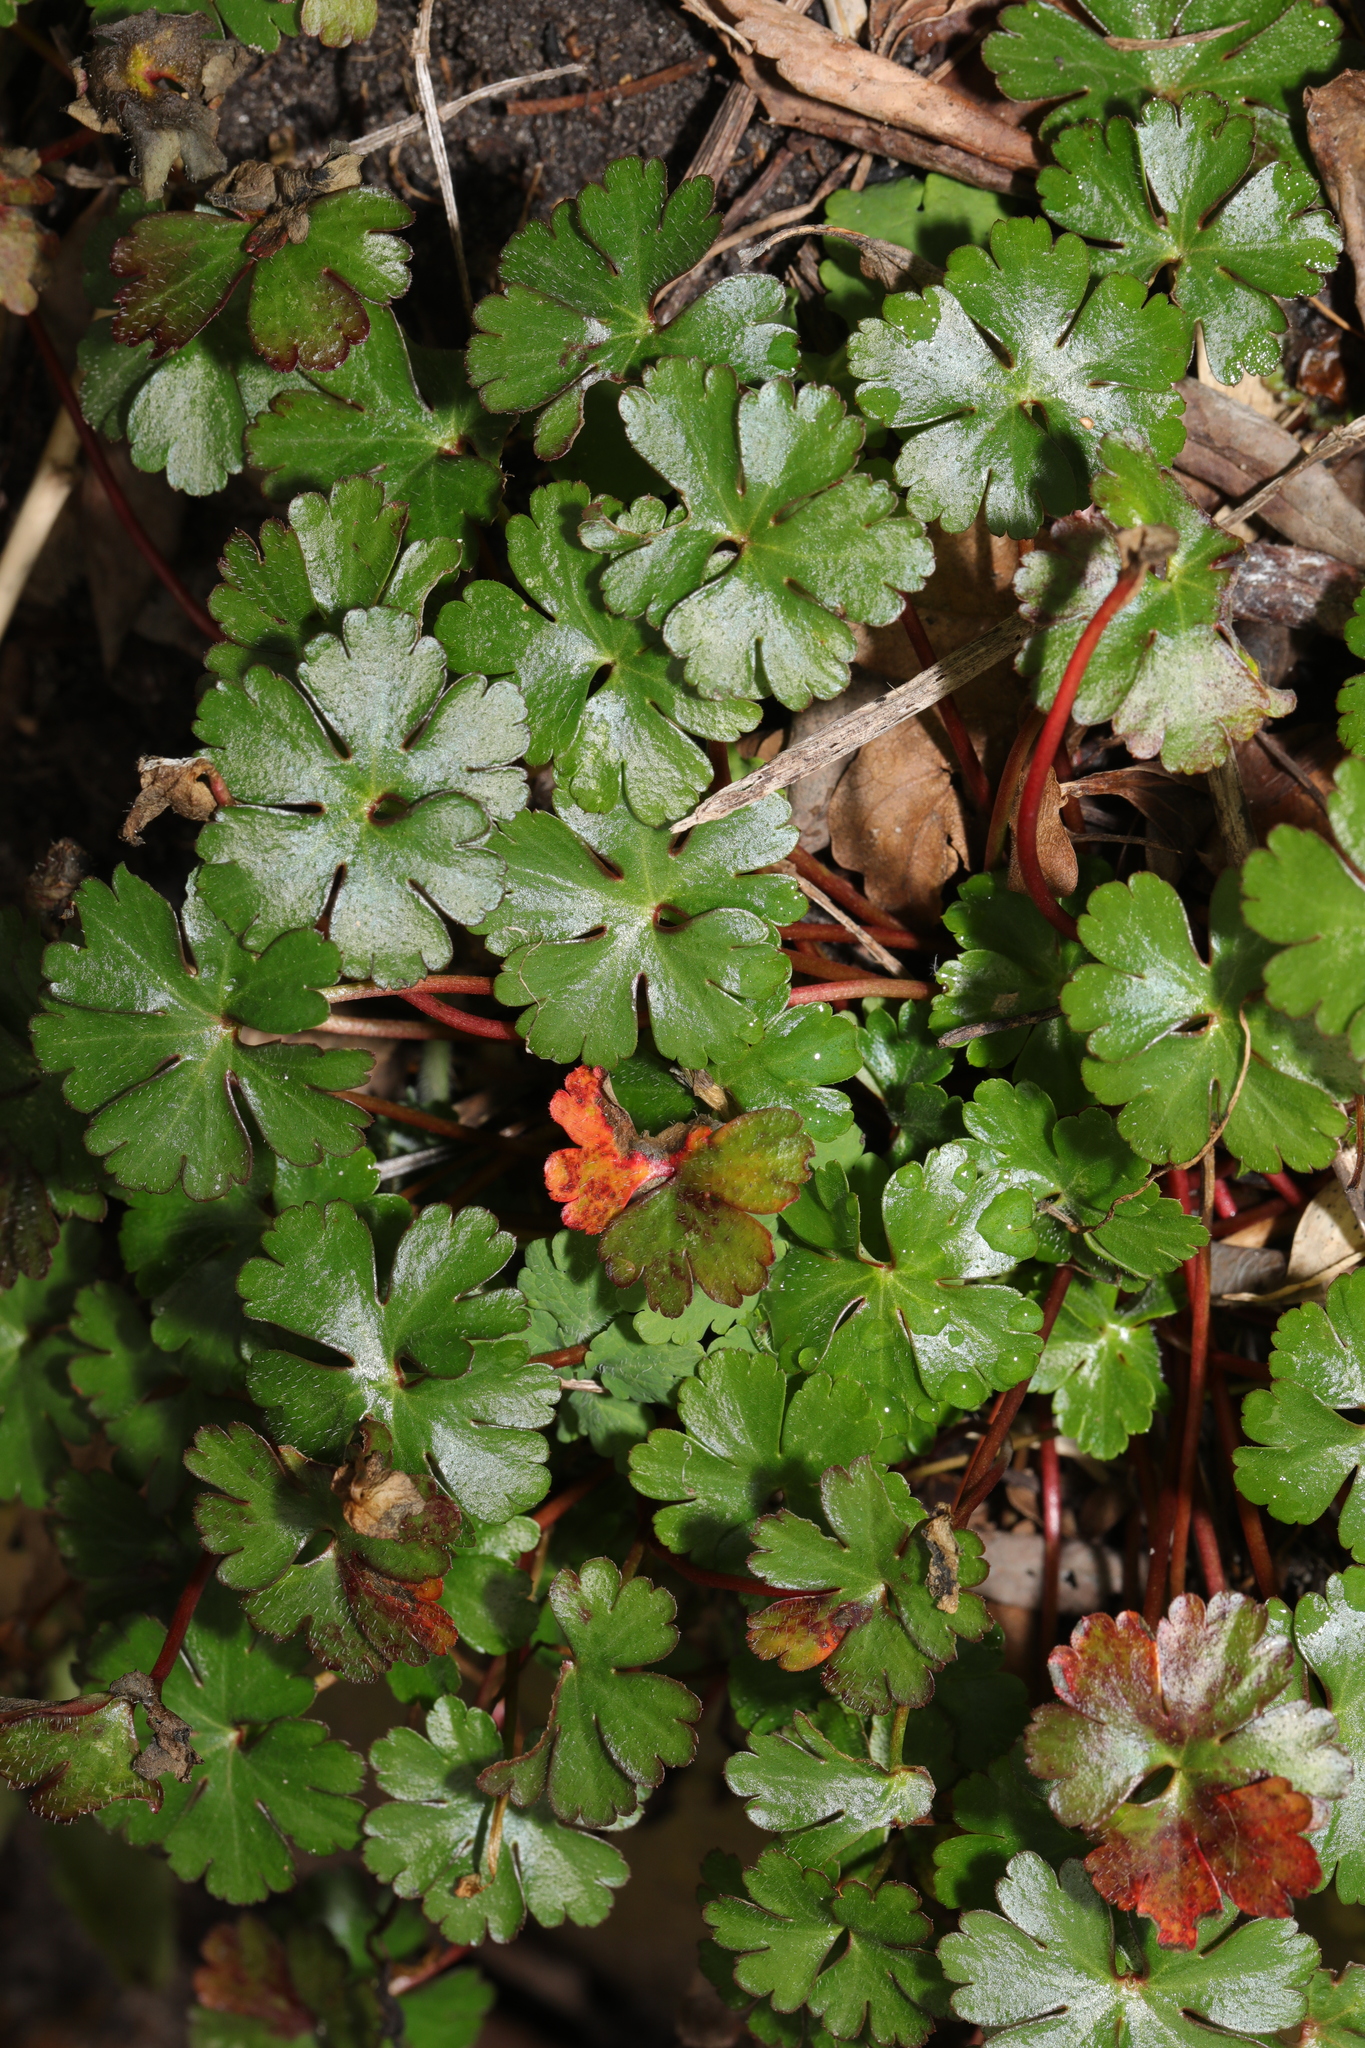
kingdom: Plantae
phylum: Tracheophyta
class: Magnoliopsida
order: Geraniales
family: Geraniaceae
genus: Geranium
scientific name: Geranium lucidum
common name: Shining crane's-bill
